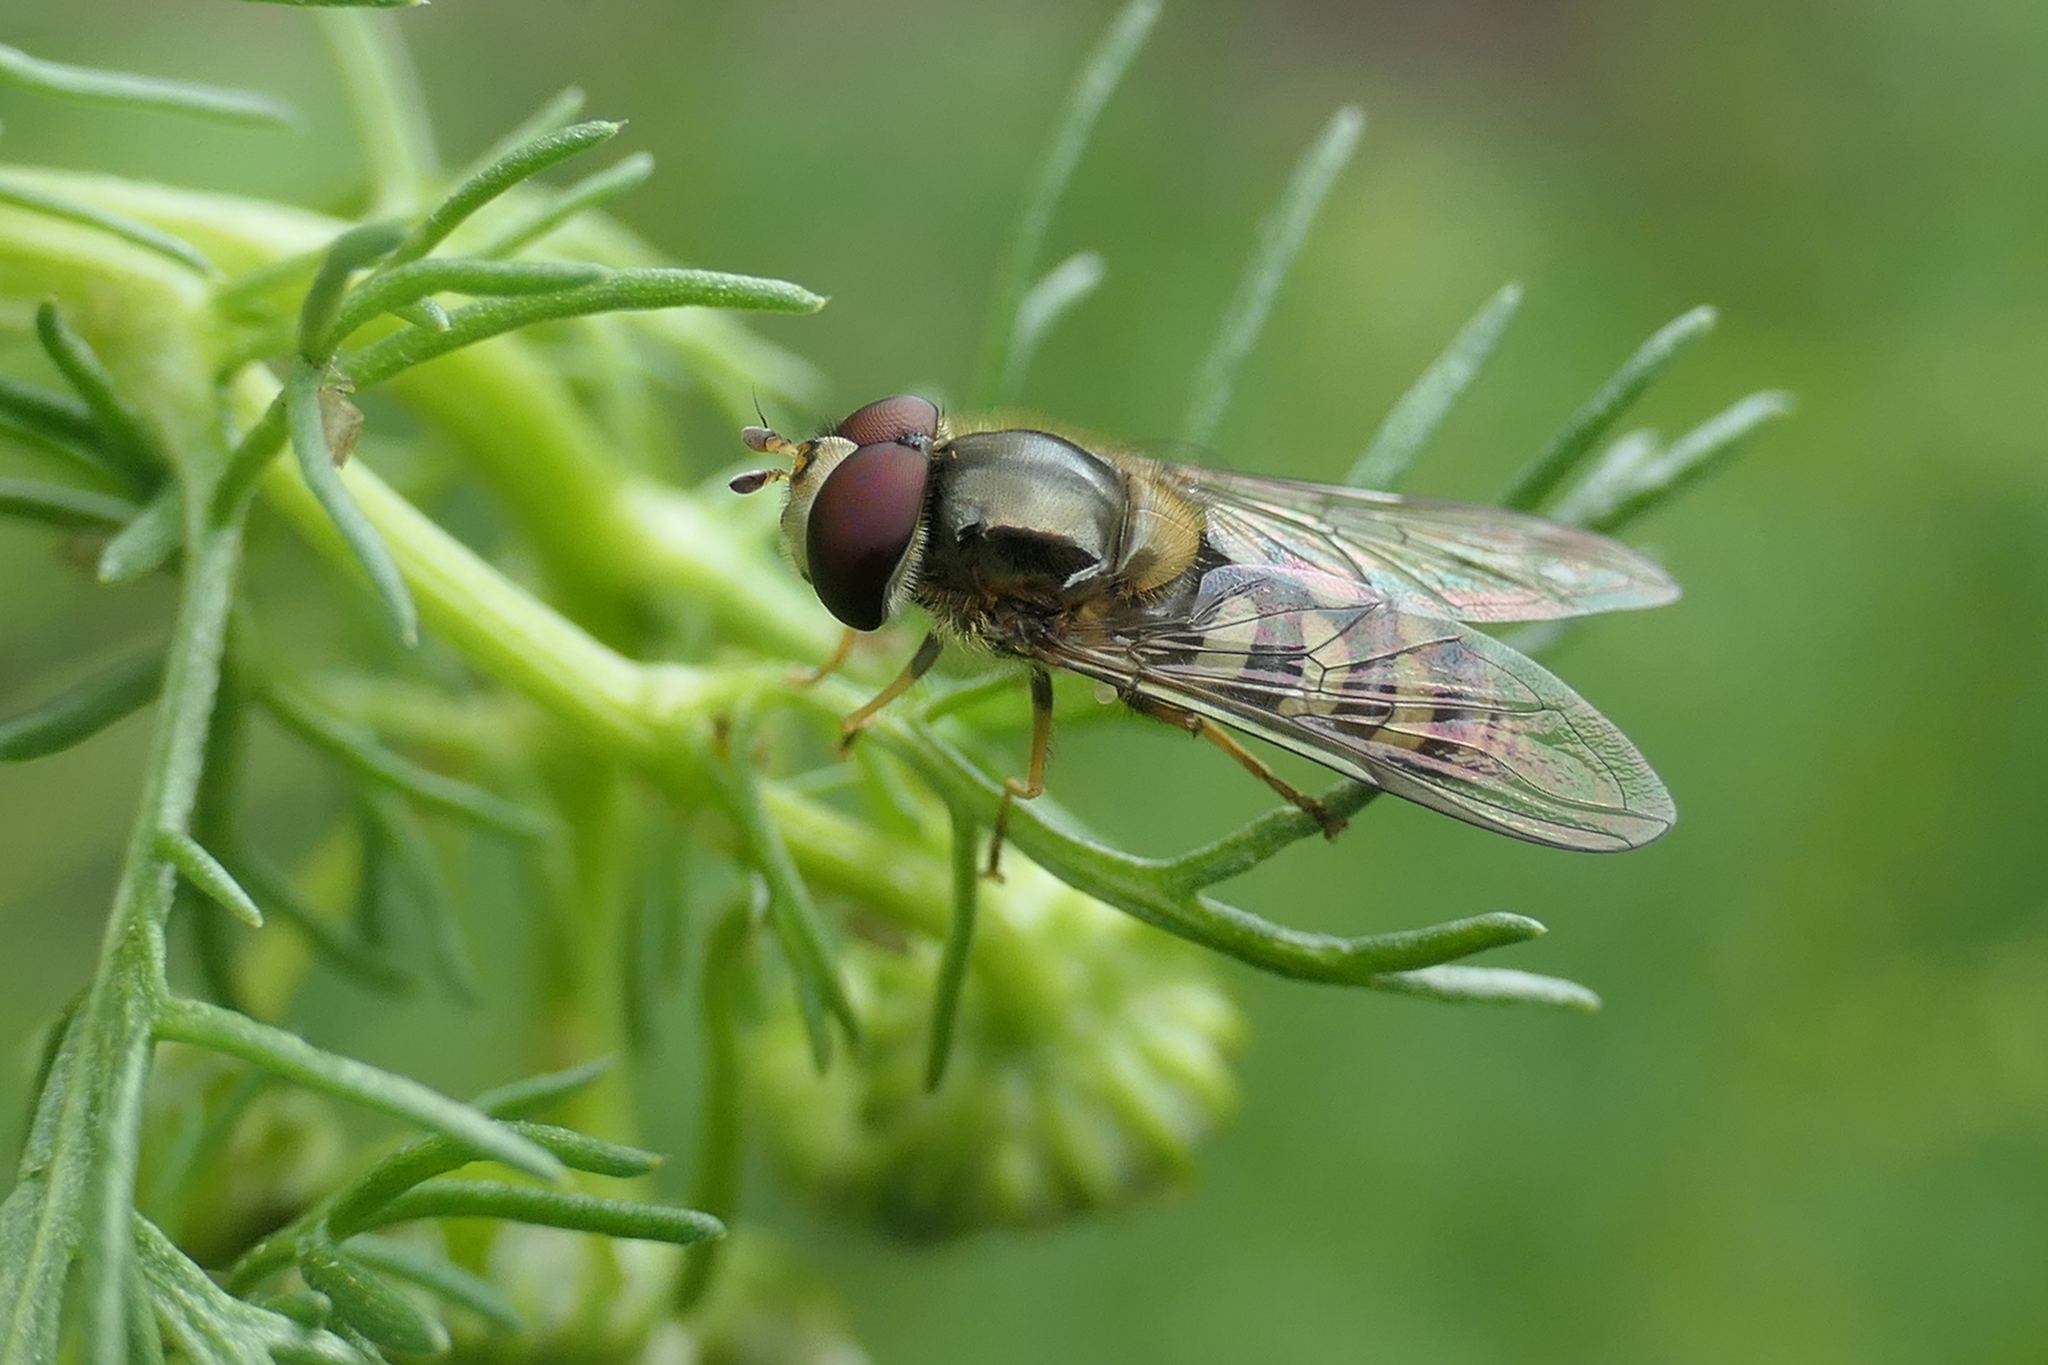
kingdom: Animalia
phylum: Arthropoda
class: Insecta
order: Diptera
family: Syrphidae
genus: Lapposyrphus
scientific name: Lapposyrphus lapponicus
